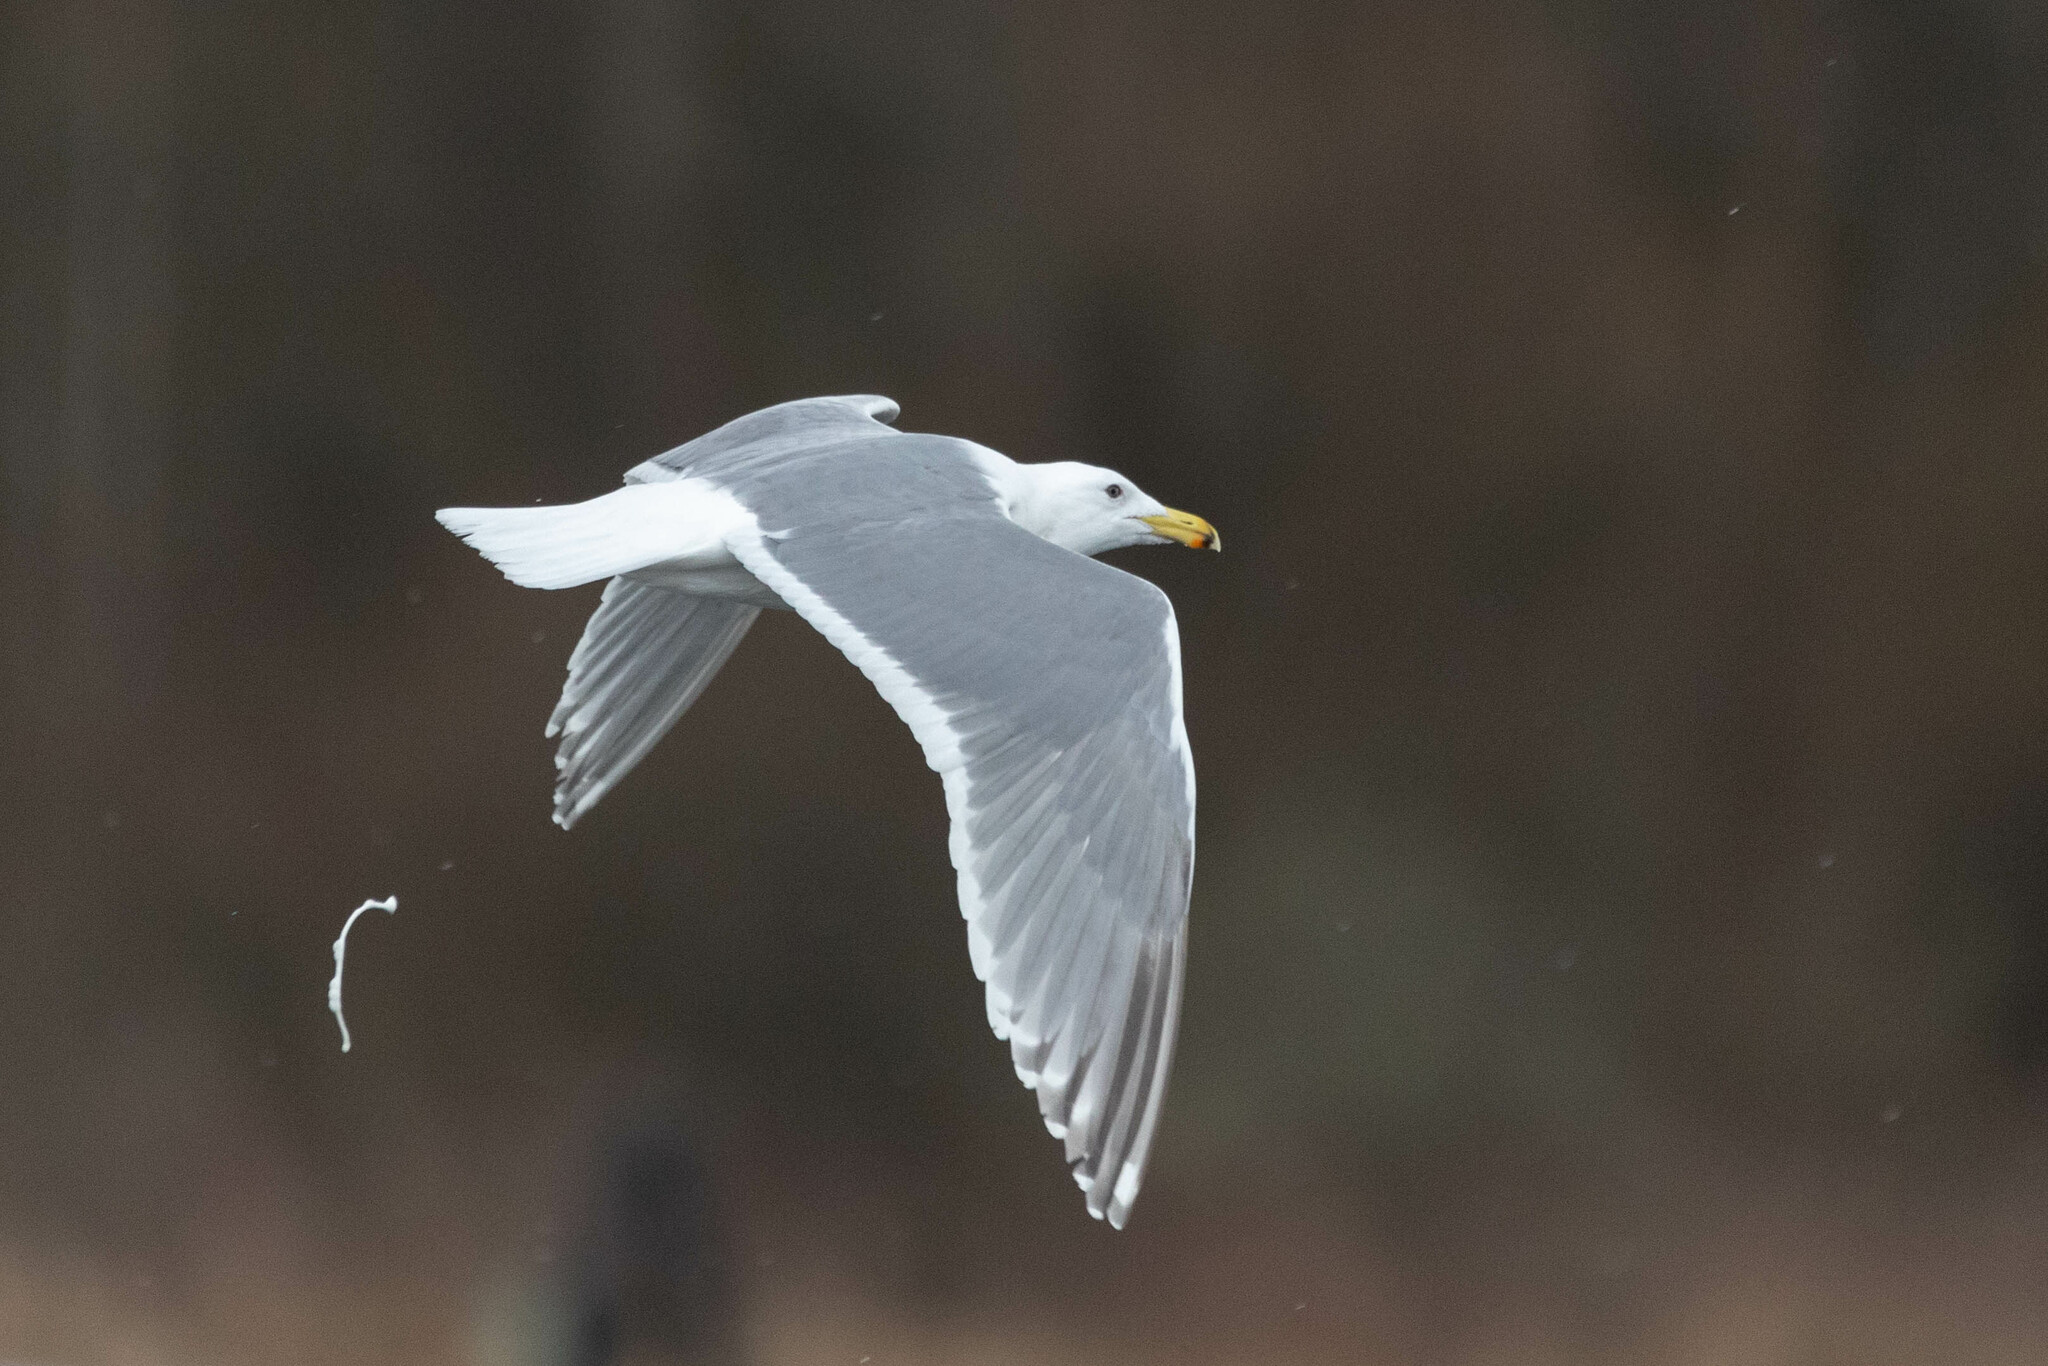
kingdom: Animalia
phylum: Chordata
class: Aves
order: Charadriiformes
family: Laridae
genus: Larus
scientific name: Larus
